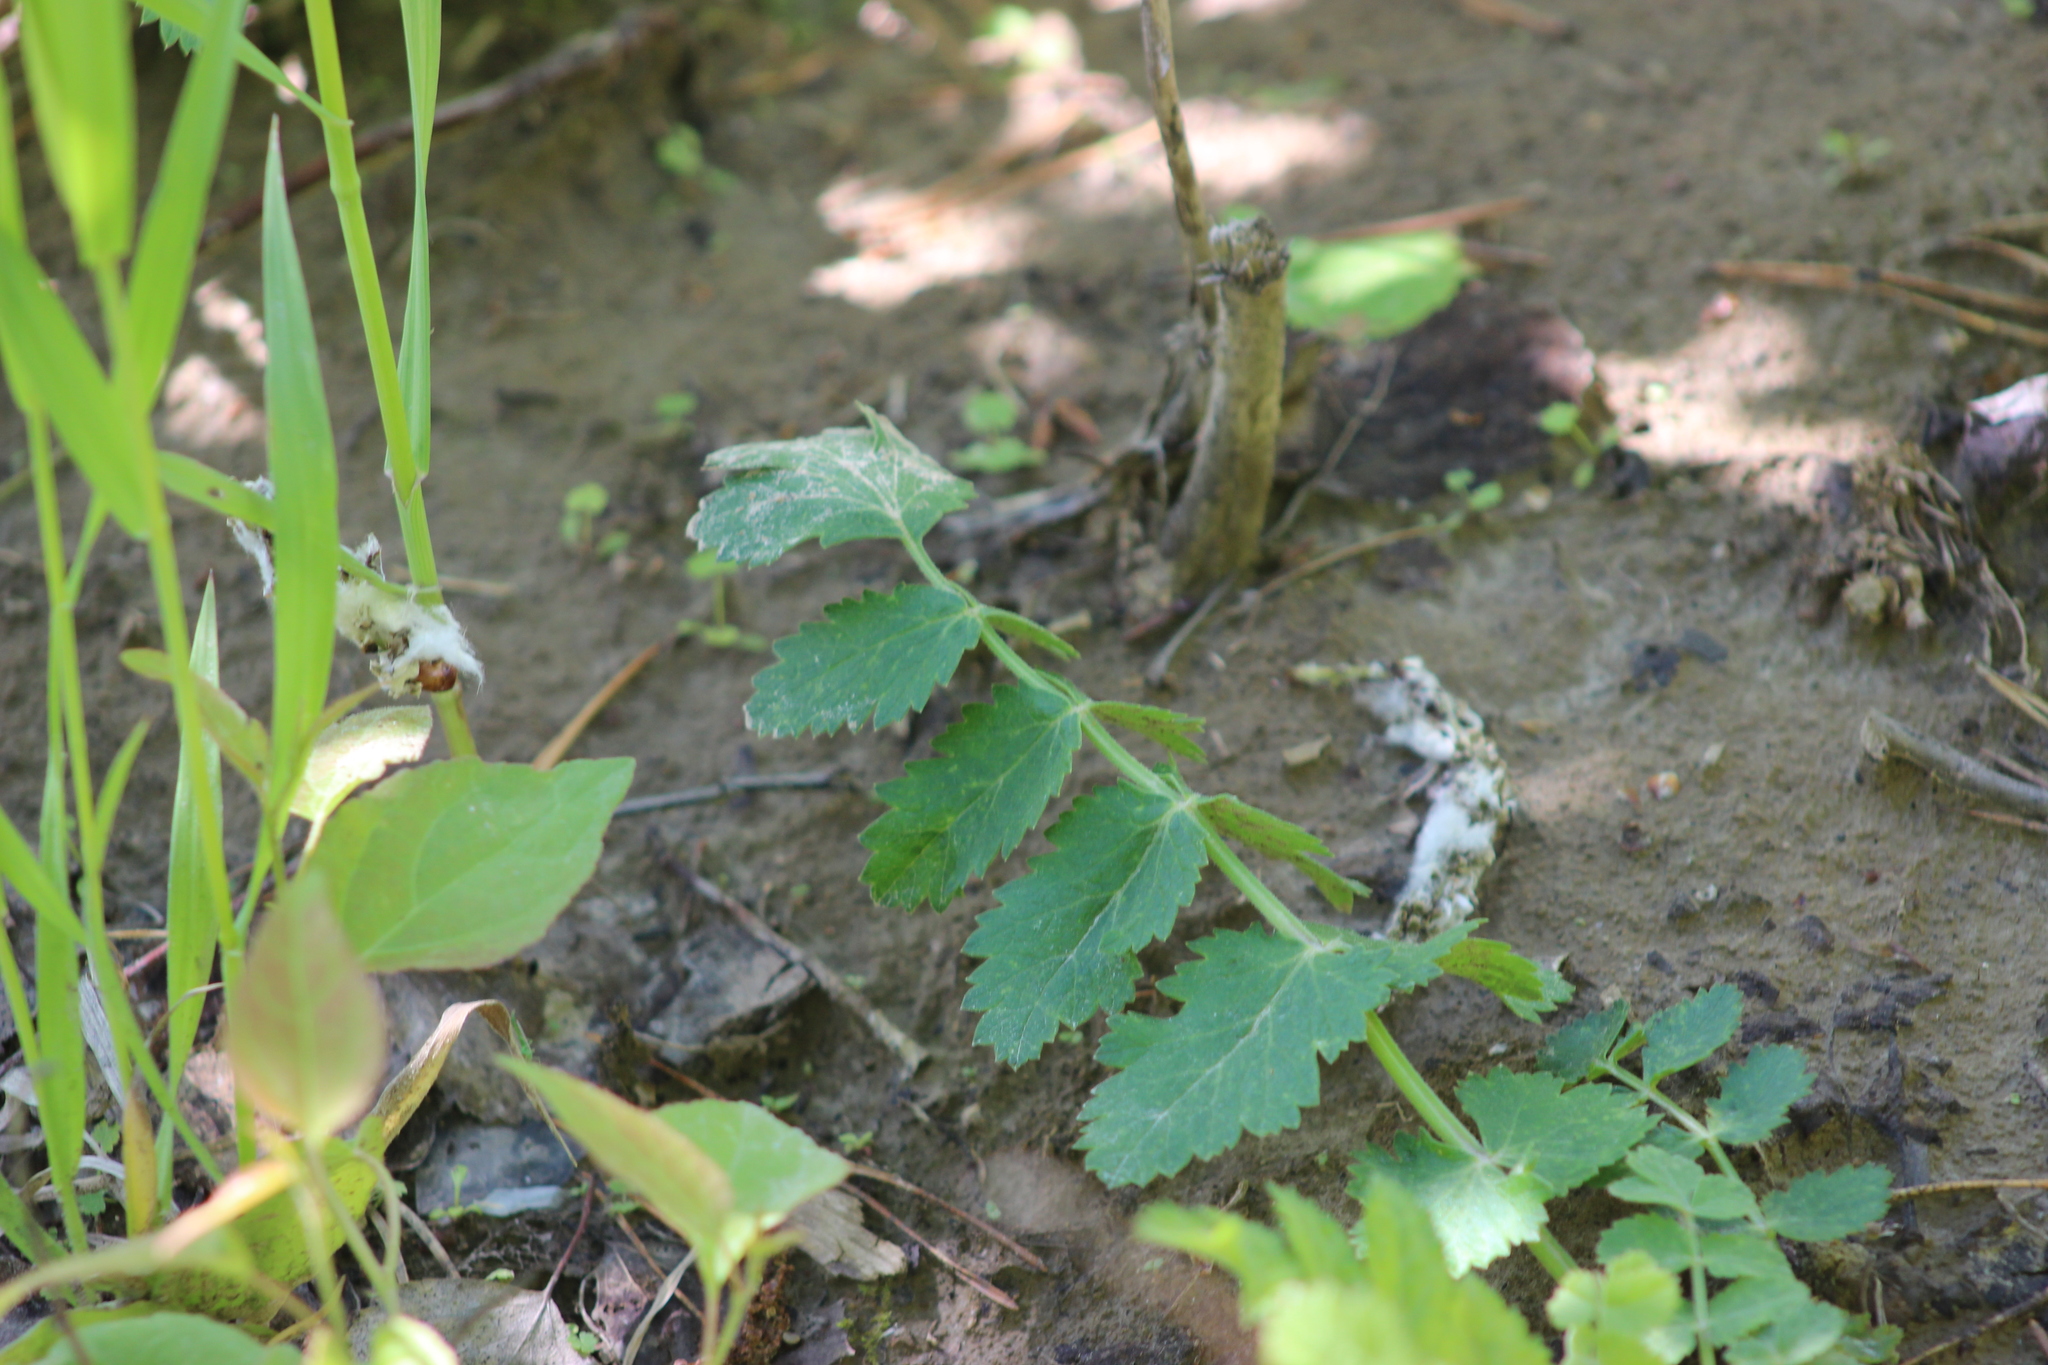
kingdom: Plantae
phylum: Tracheophyta
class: Magnoliopsida
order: Apiales
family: Apiaceae
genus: Pimpinella
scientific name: Pimpinella saxifraga
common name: Burnet-saxifrage
